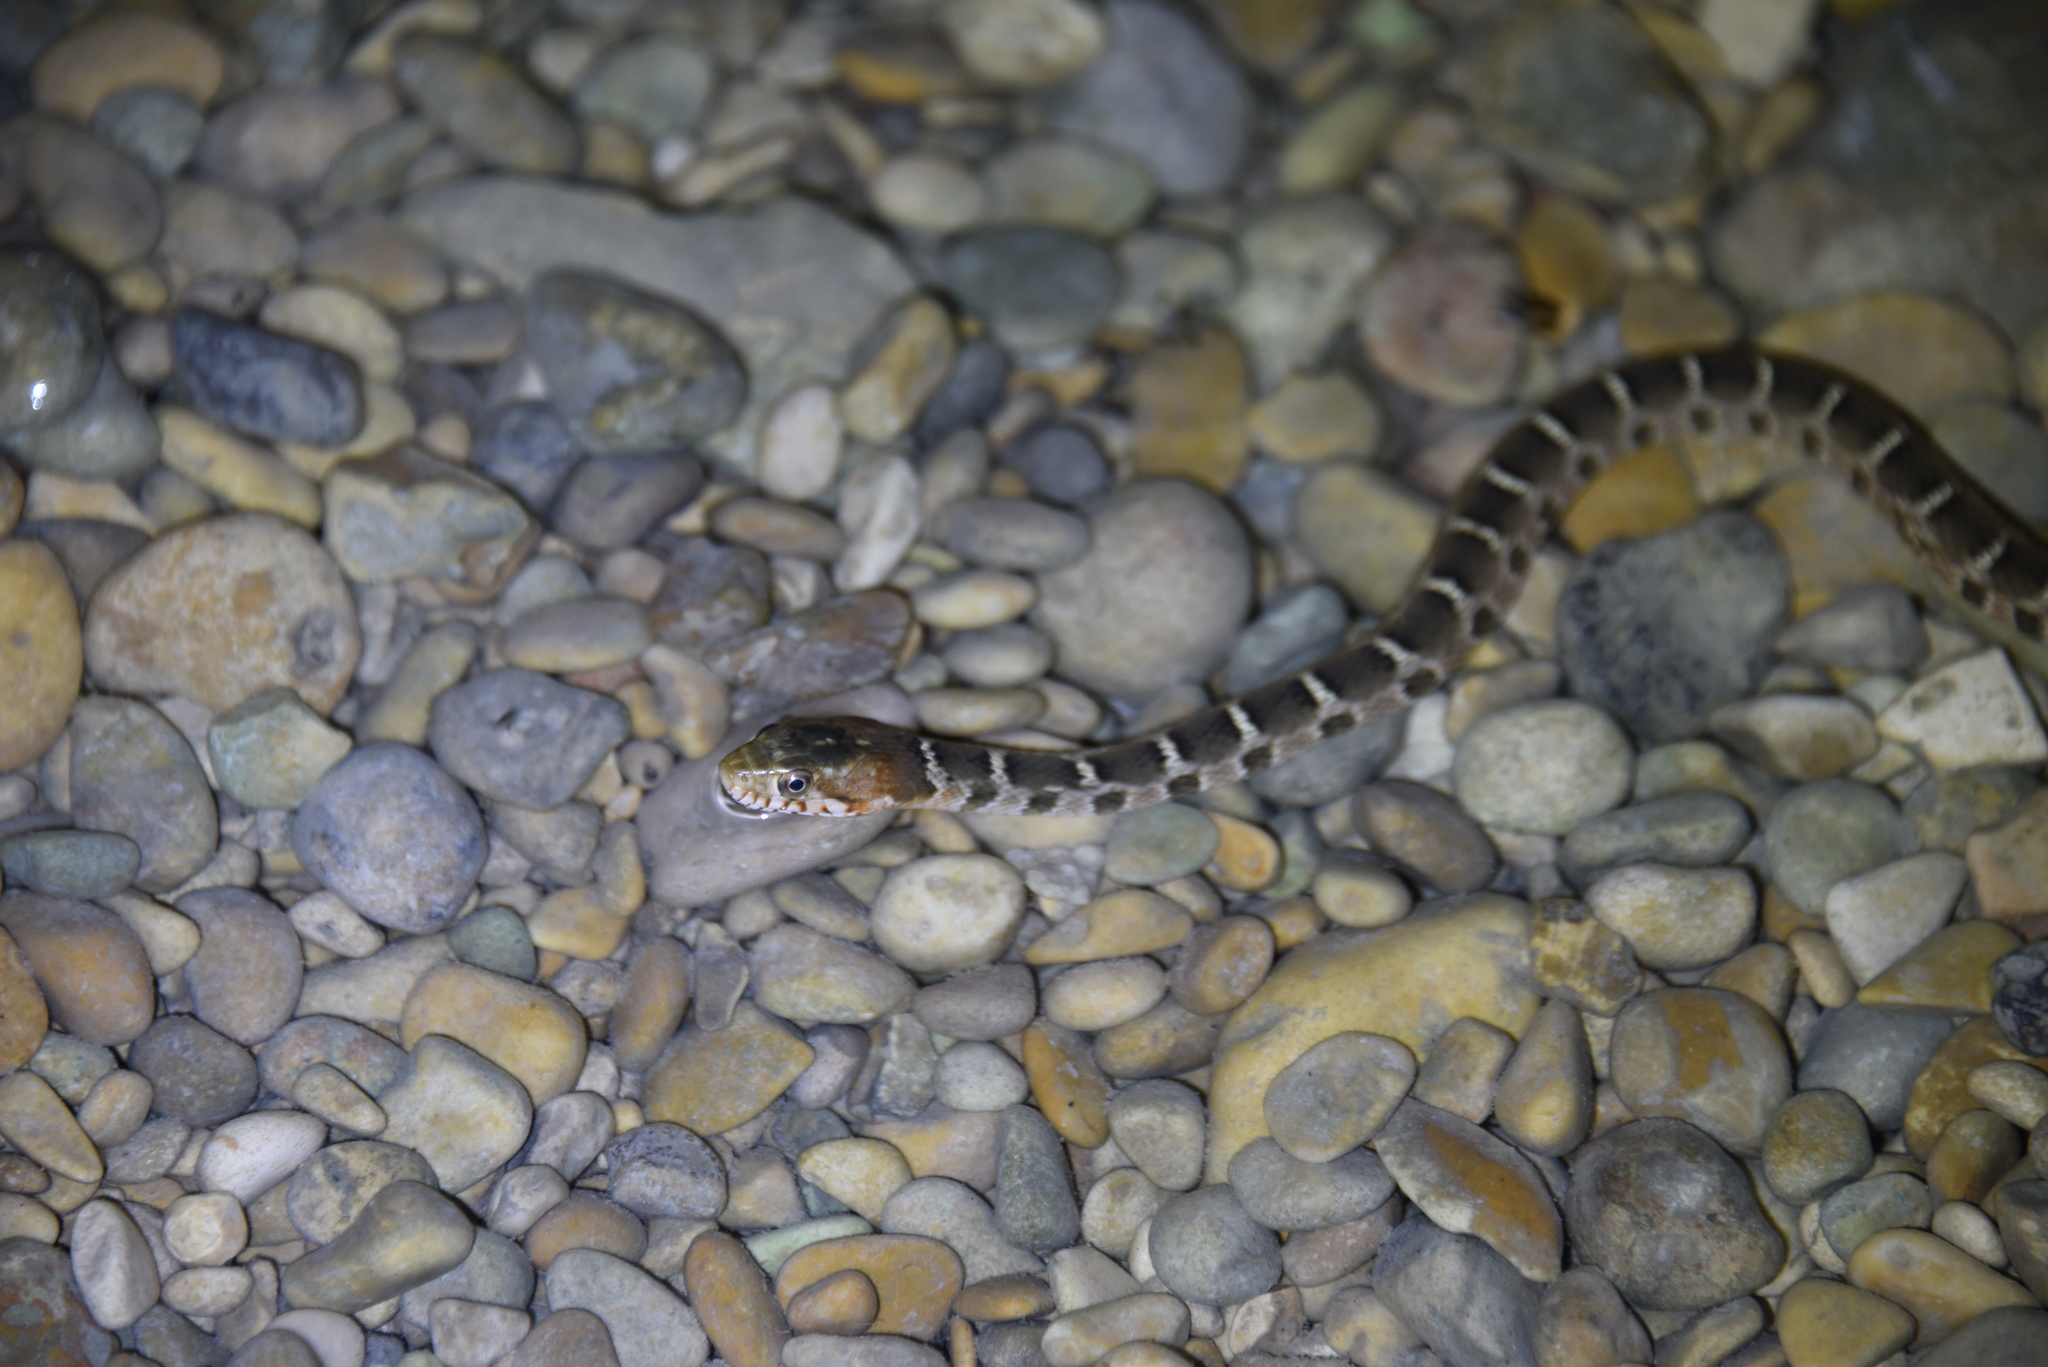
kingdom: Animalia
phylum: Chordata
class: Squamata
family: Colubridae
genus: Nerodia
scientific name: Nerodia erythrogaster
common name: Plainbelly water snake
